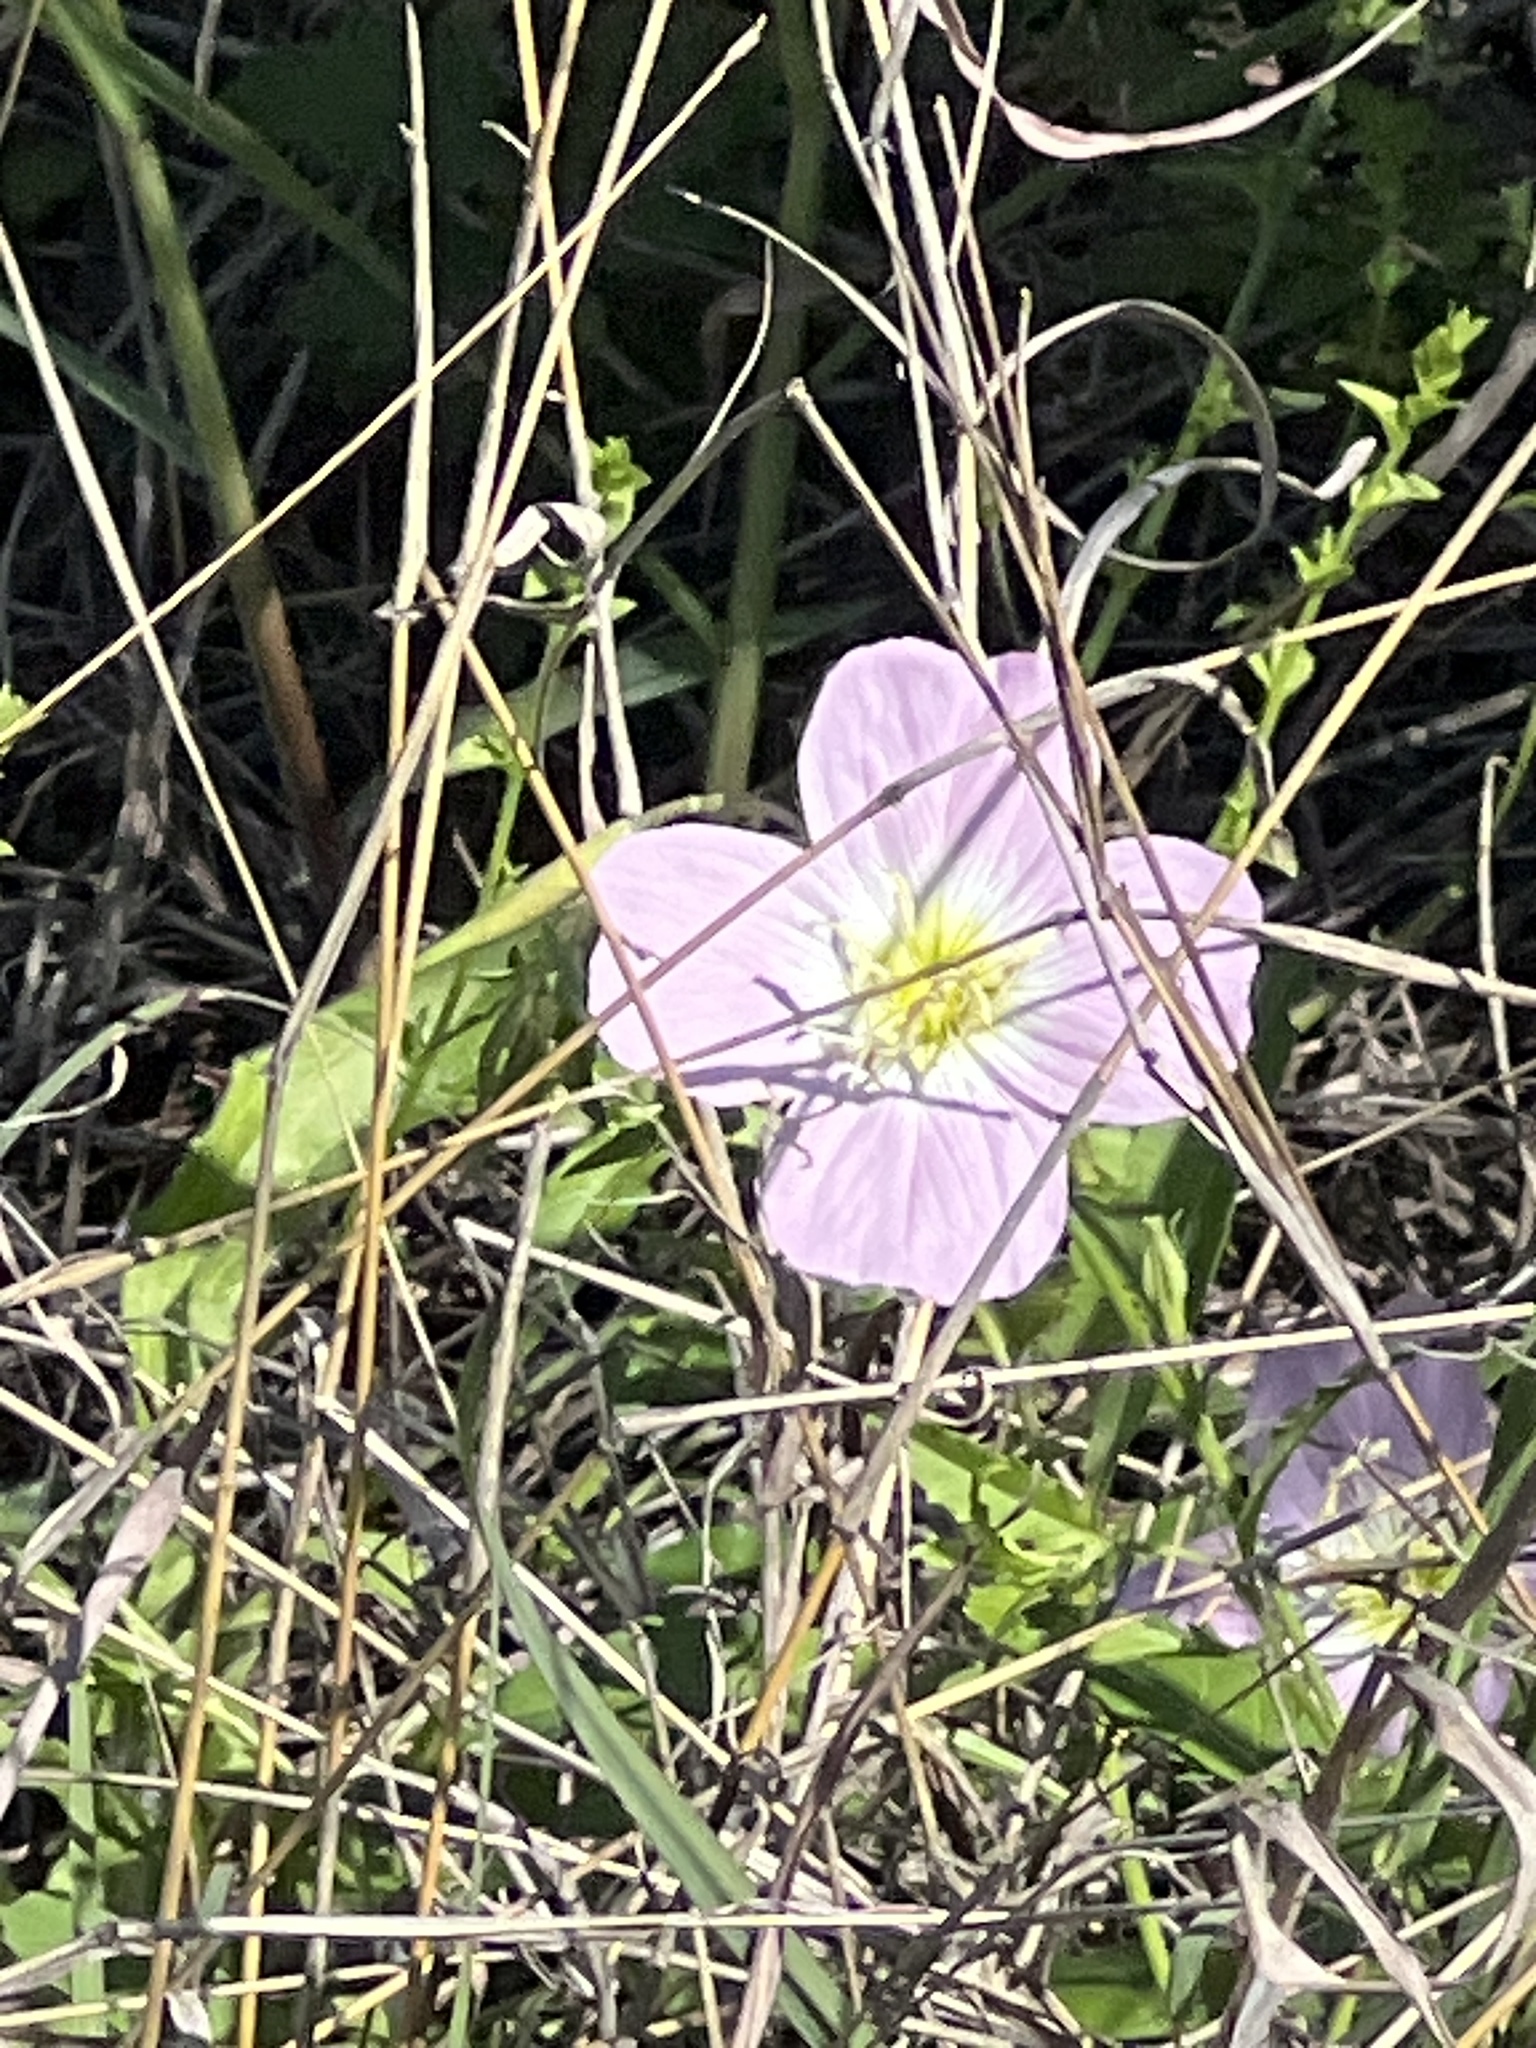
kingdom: Plantae
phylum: Tracheophyta
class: Magnoliopsida
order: Myrtales
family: Onagraceae
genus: Oenothera
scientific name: Oenothera speciosa
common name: White evening-primrose
